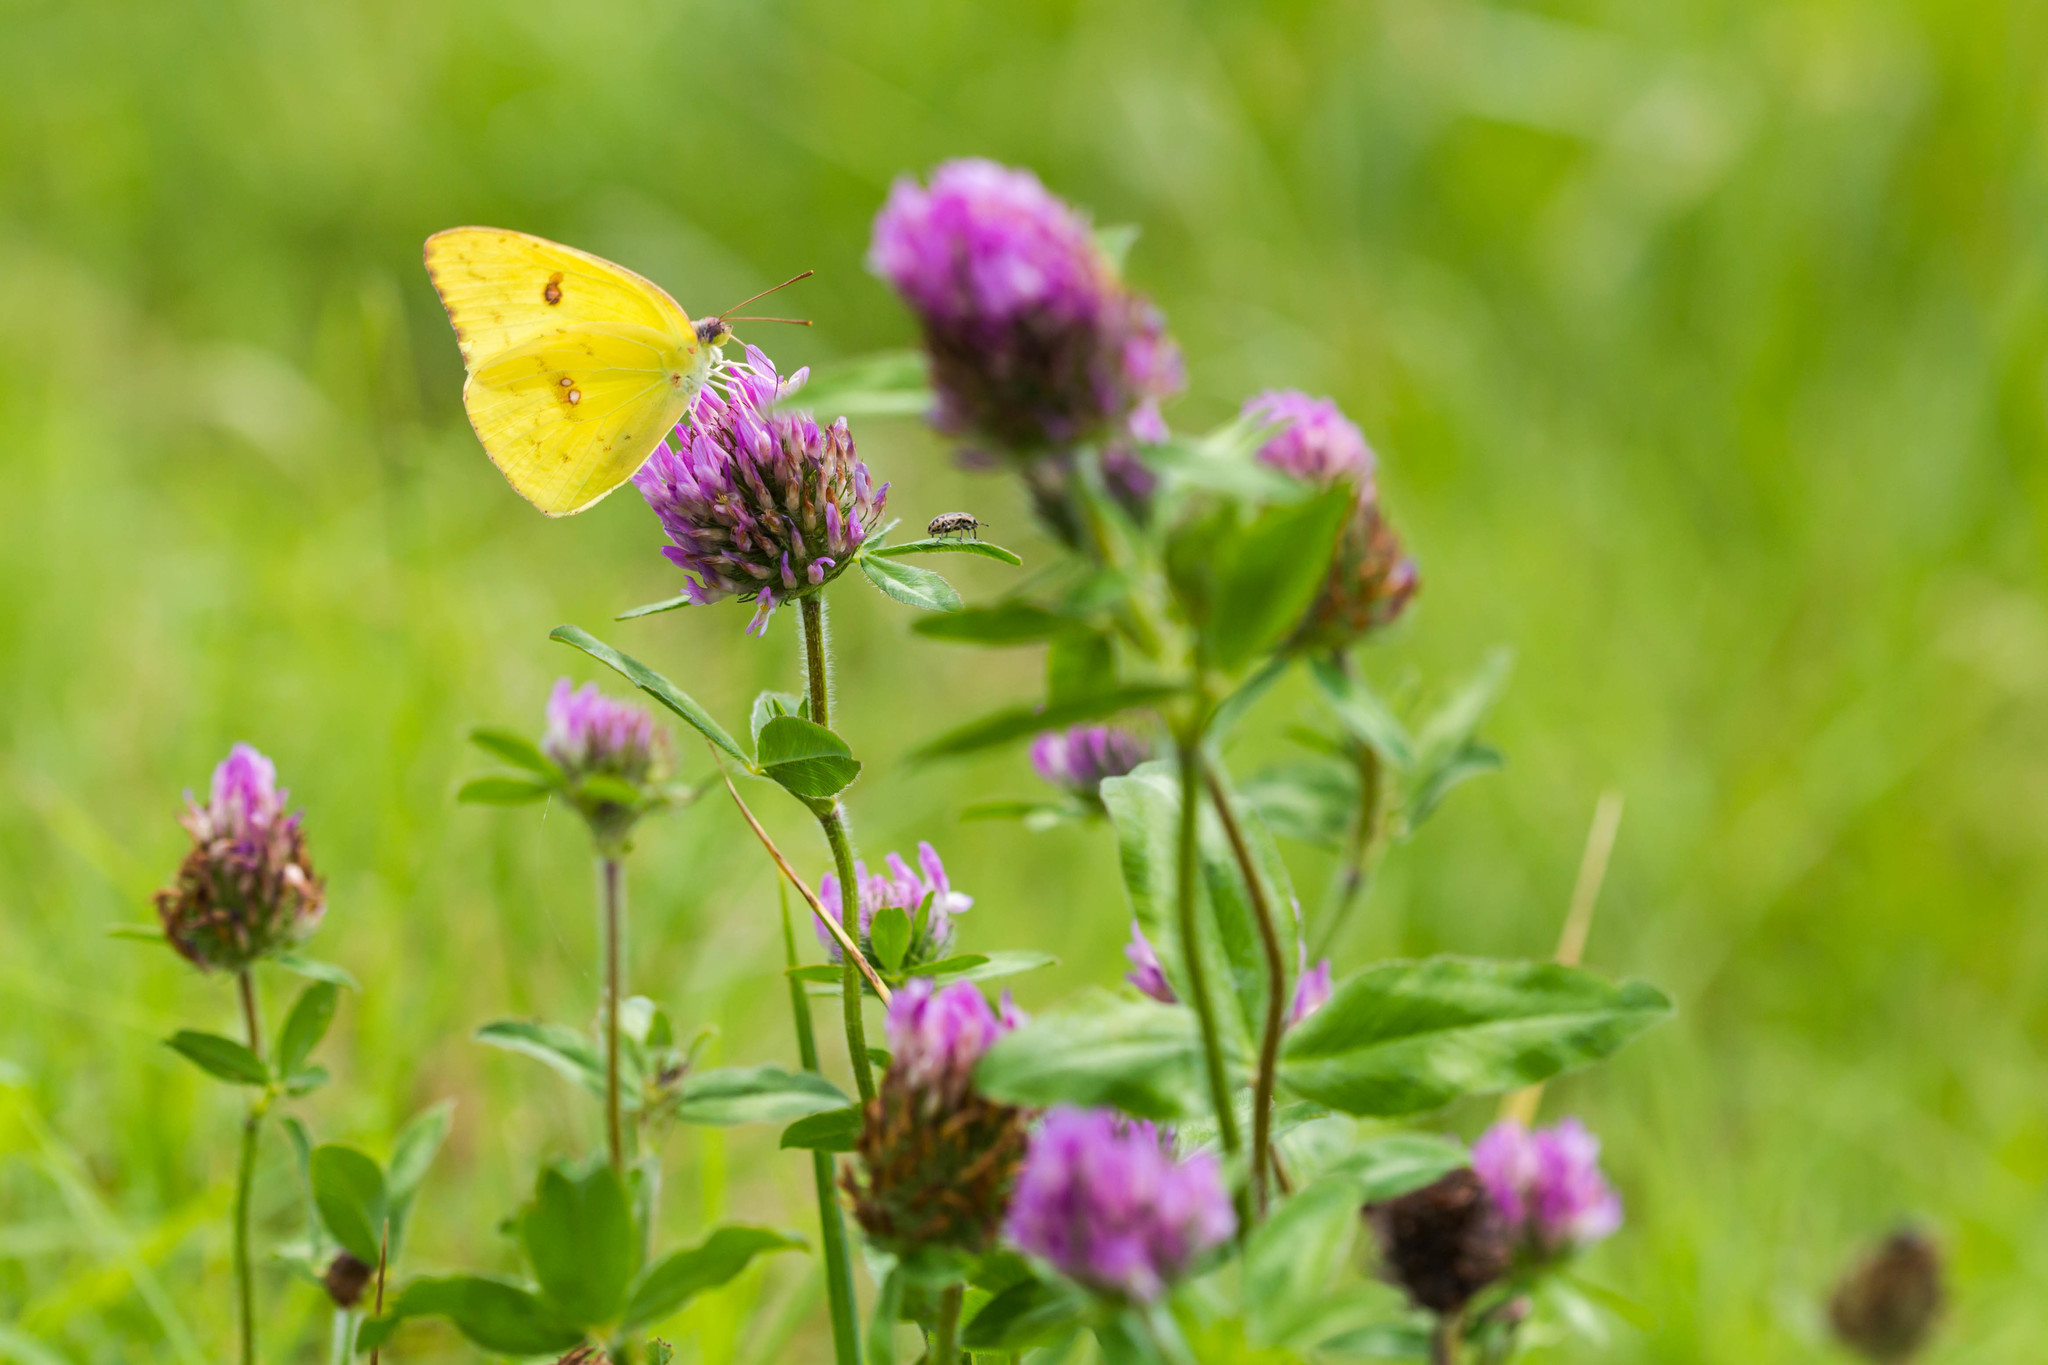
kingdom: Animalia
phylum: Arthropoda
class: Insecta
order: Lepidoptera
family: Pieridae
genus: Phoebis
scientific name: Phoebis sennae
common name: Cloudless sulphur
